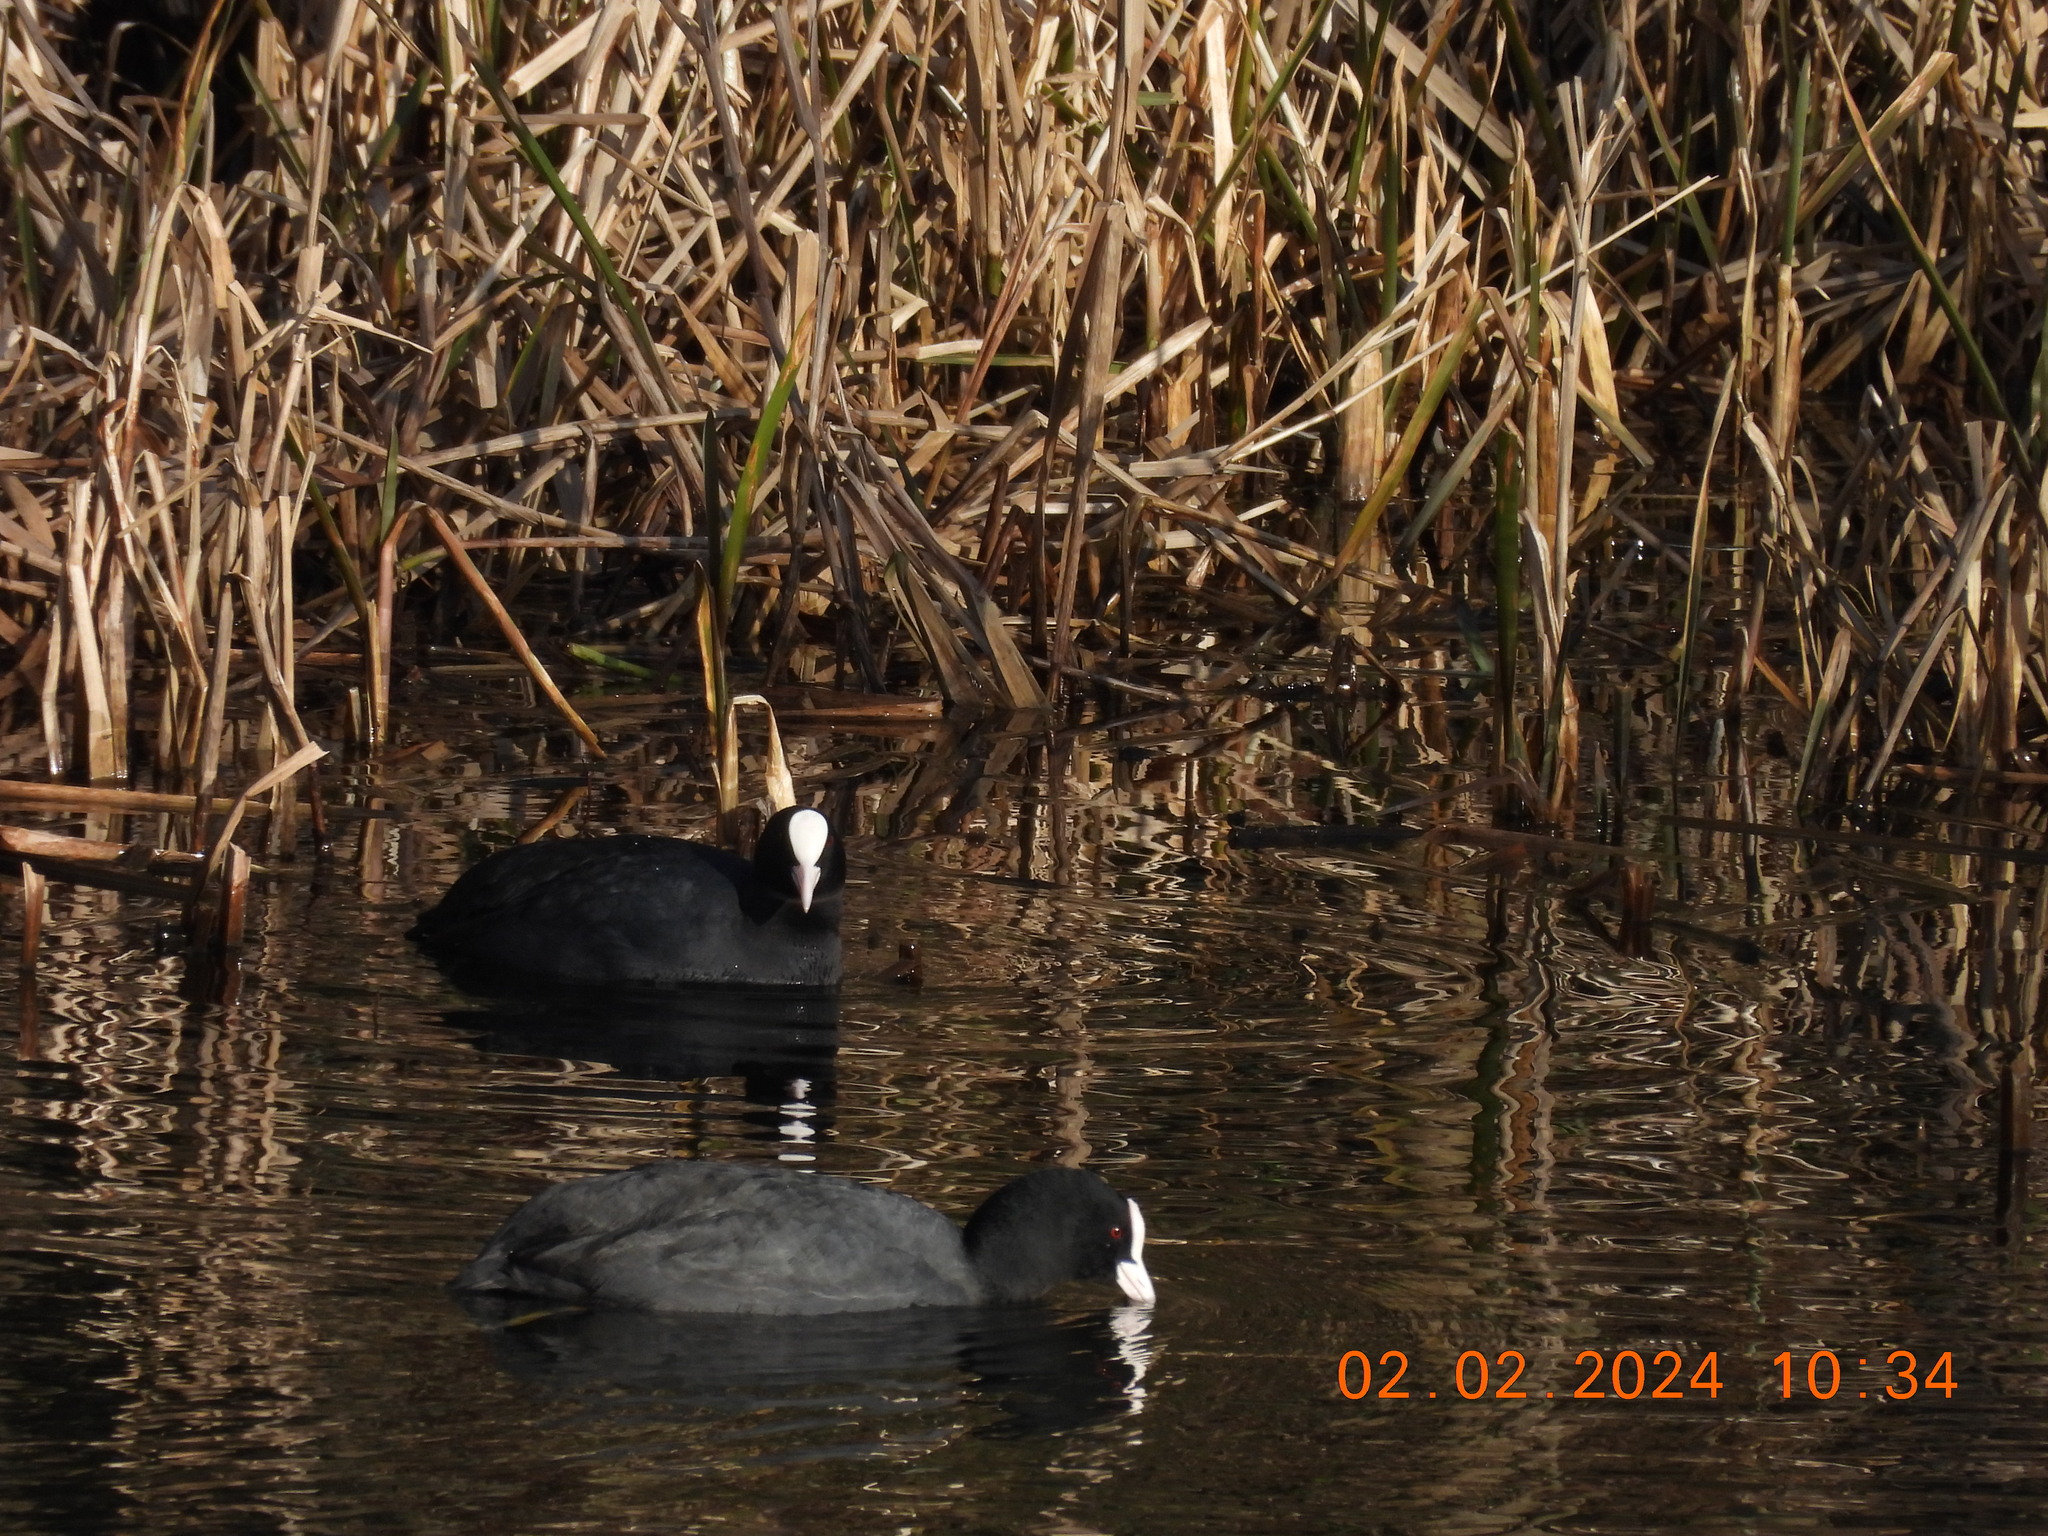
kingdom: Animalia
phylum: Chordata
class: Aves
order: Gruiformes
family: Rallidae
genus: Fulica
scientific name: Fulica atra
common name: Eurasian coot
